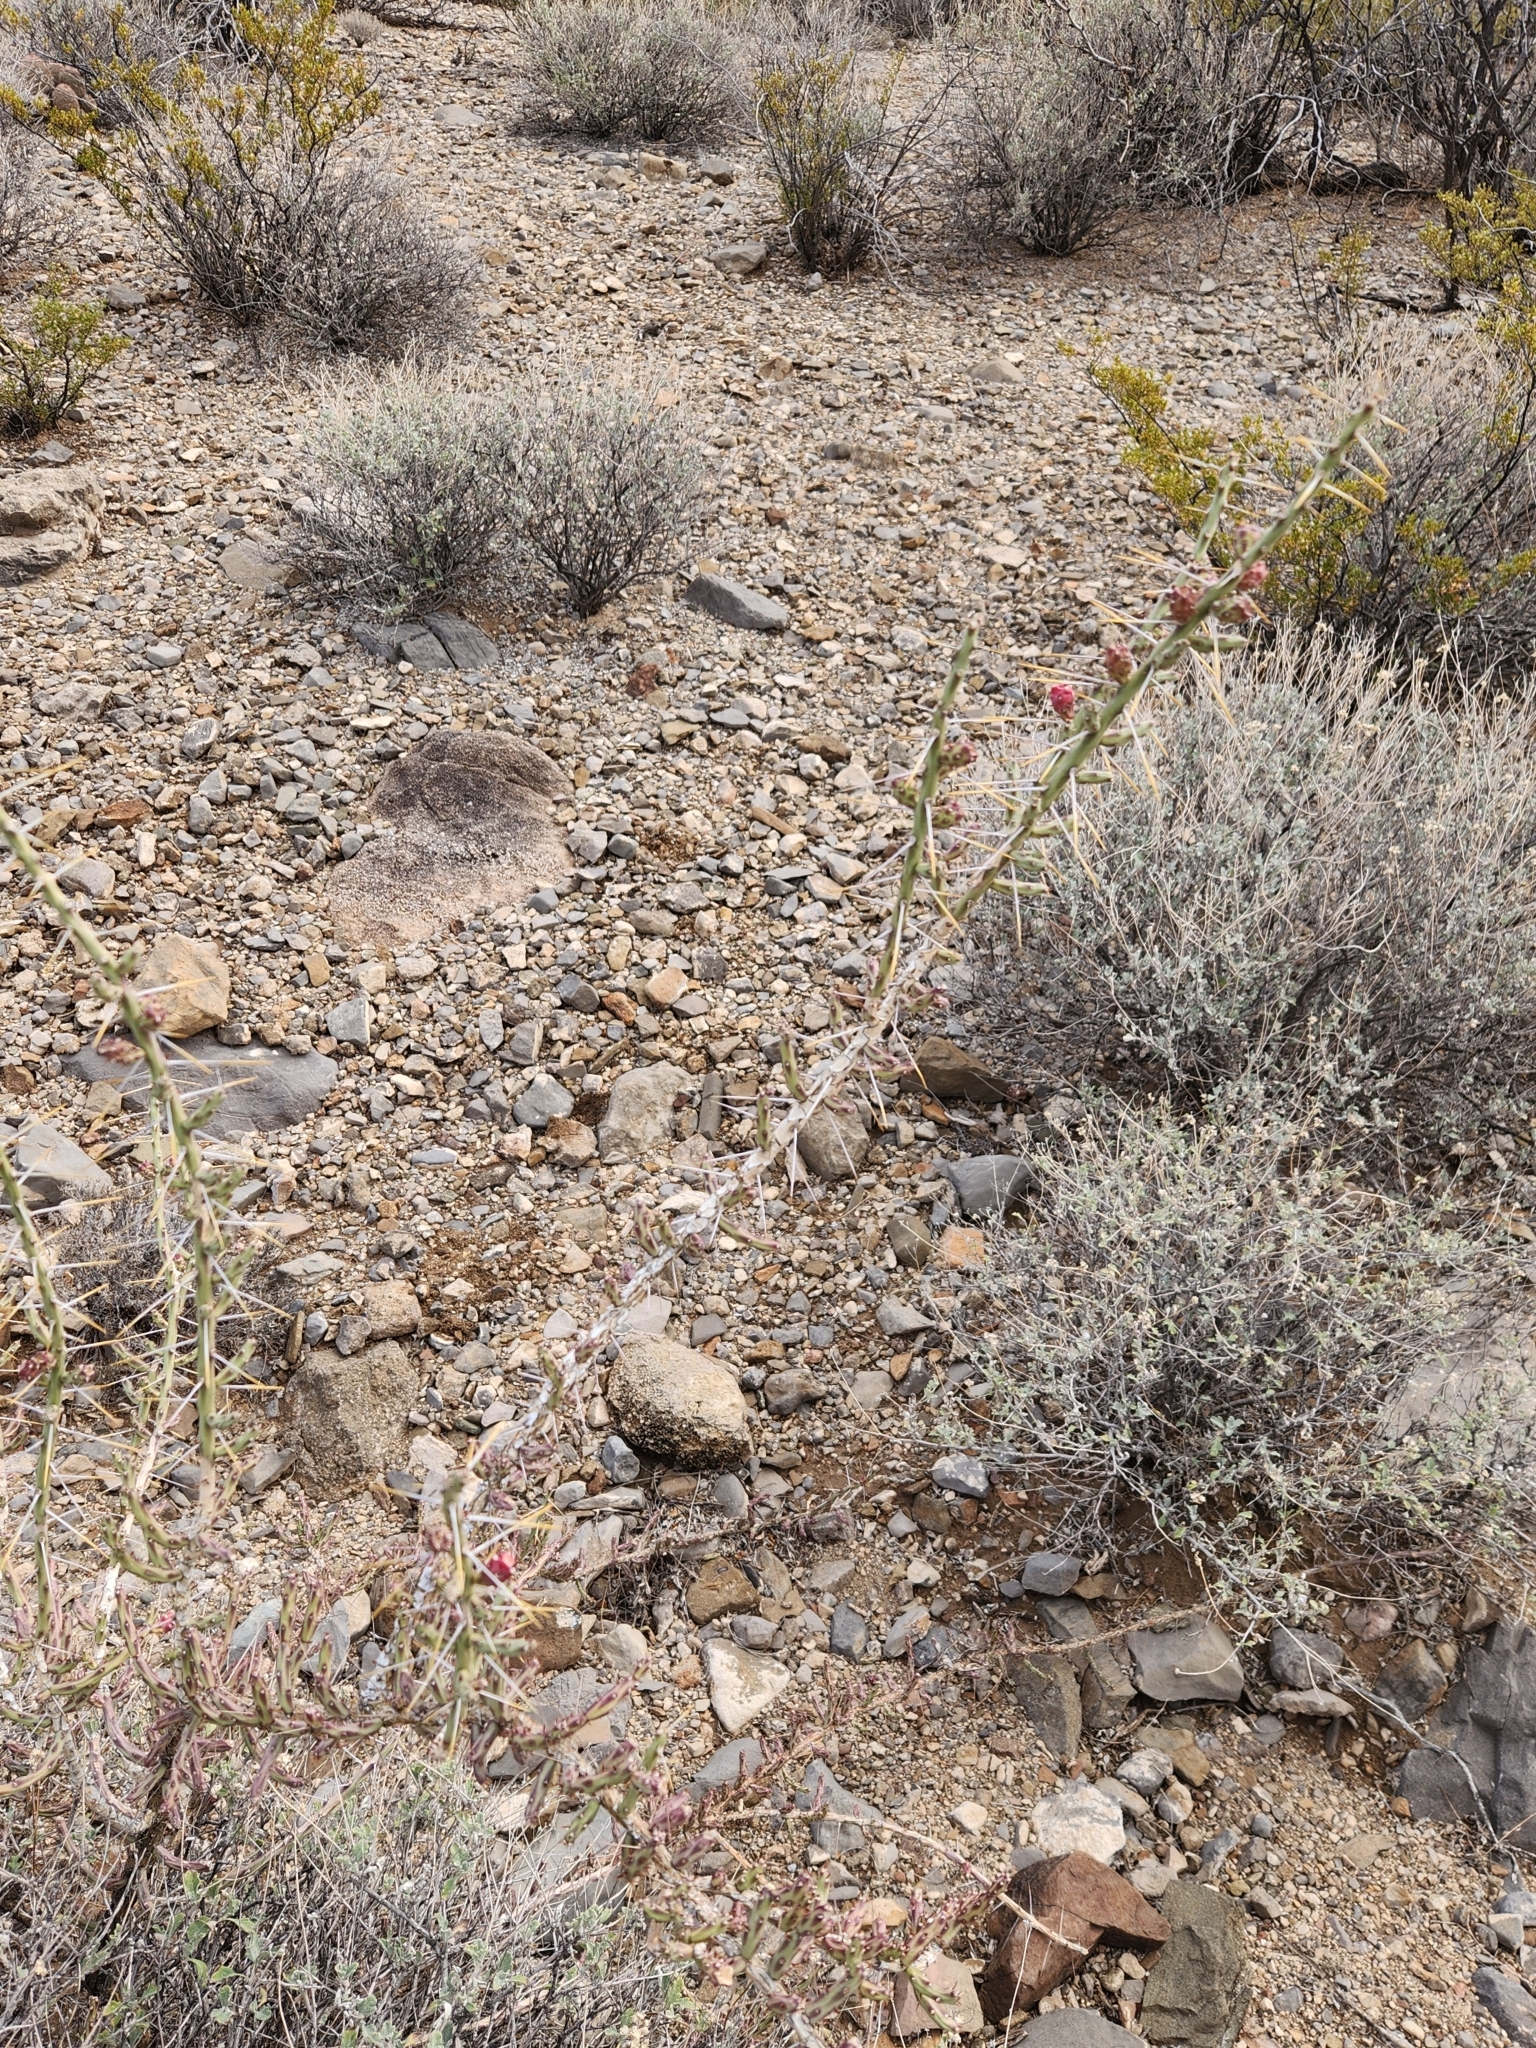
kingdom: Plantae
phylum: Tracheophyta
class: Magnoliopsida
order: Caryophyllales
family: Cactaceae
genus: Cylindropuntia
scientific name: Cylindropuntia leptocaulis
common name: Christmas cactus
